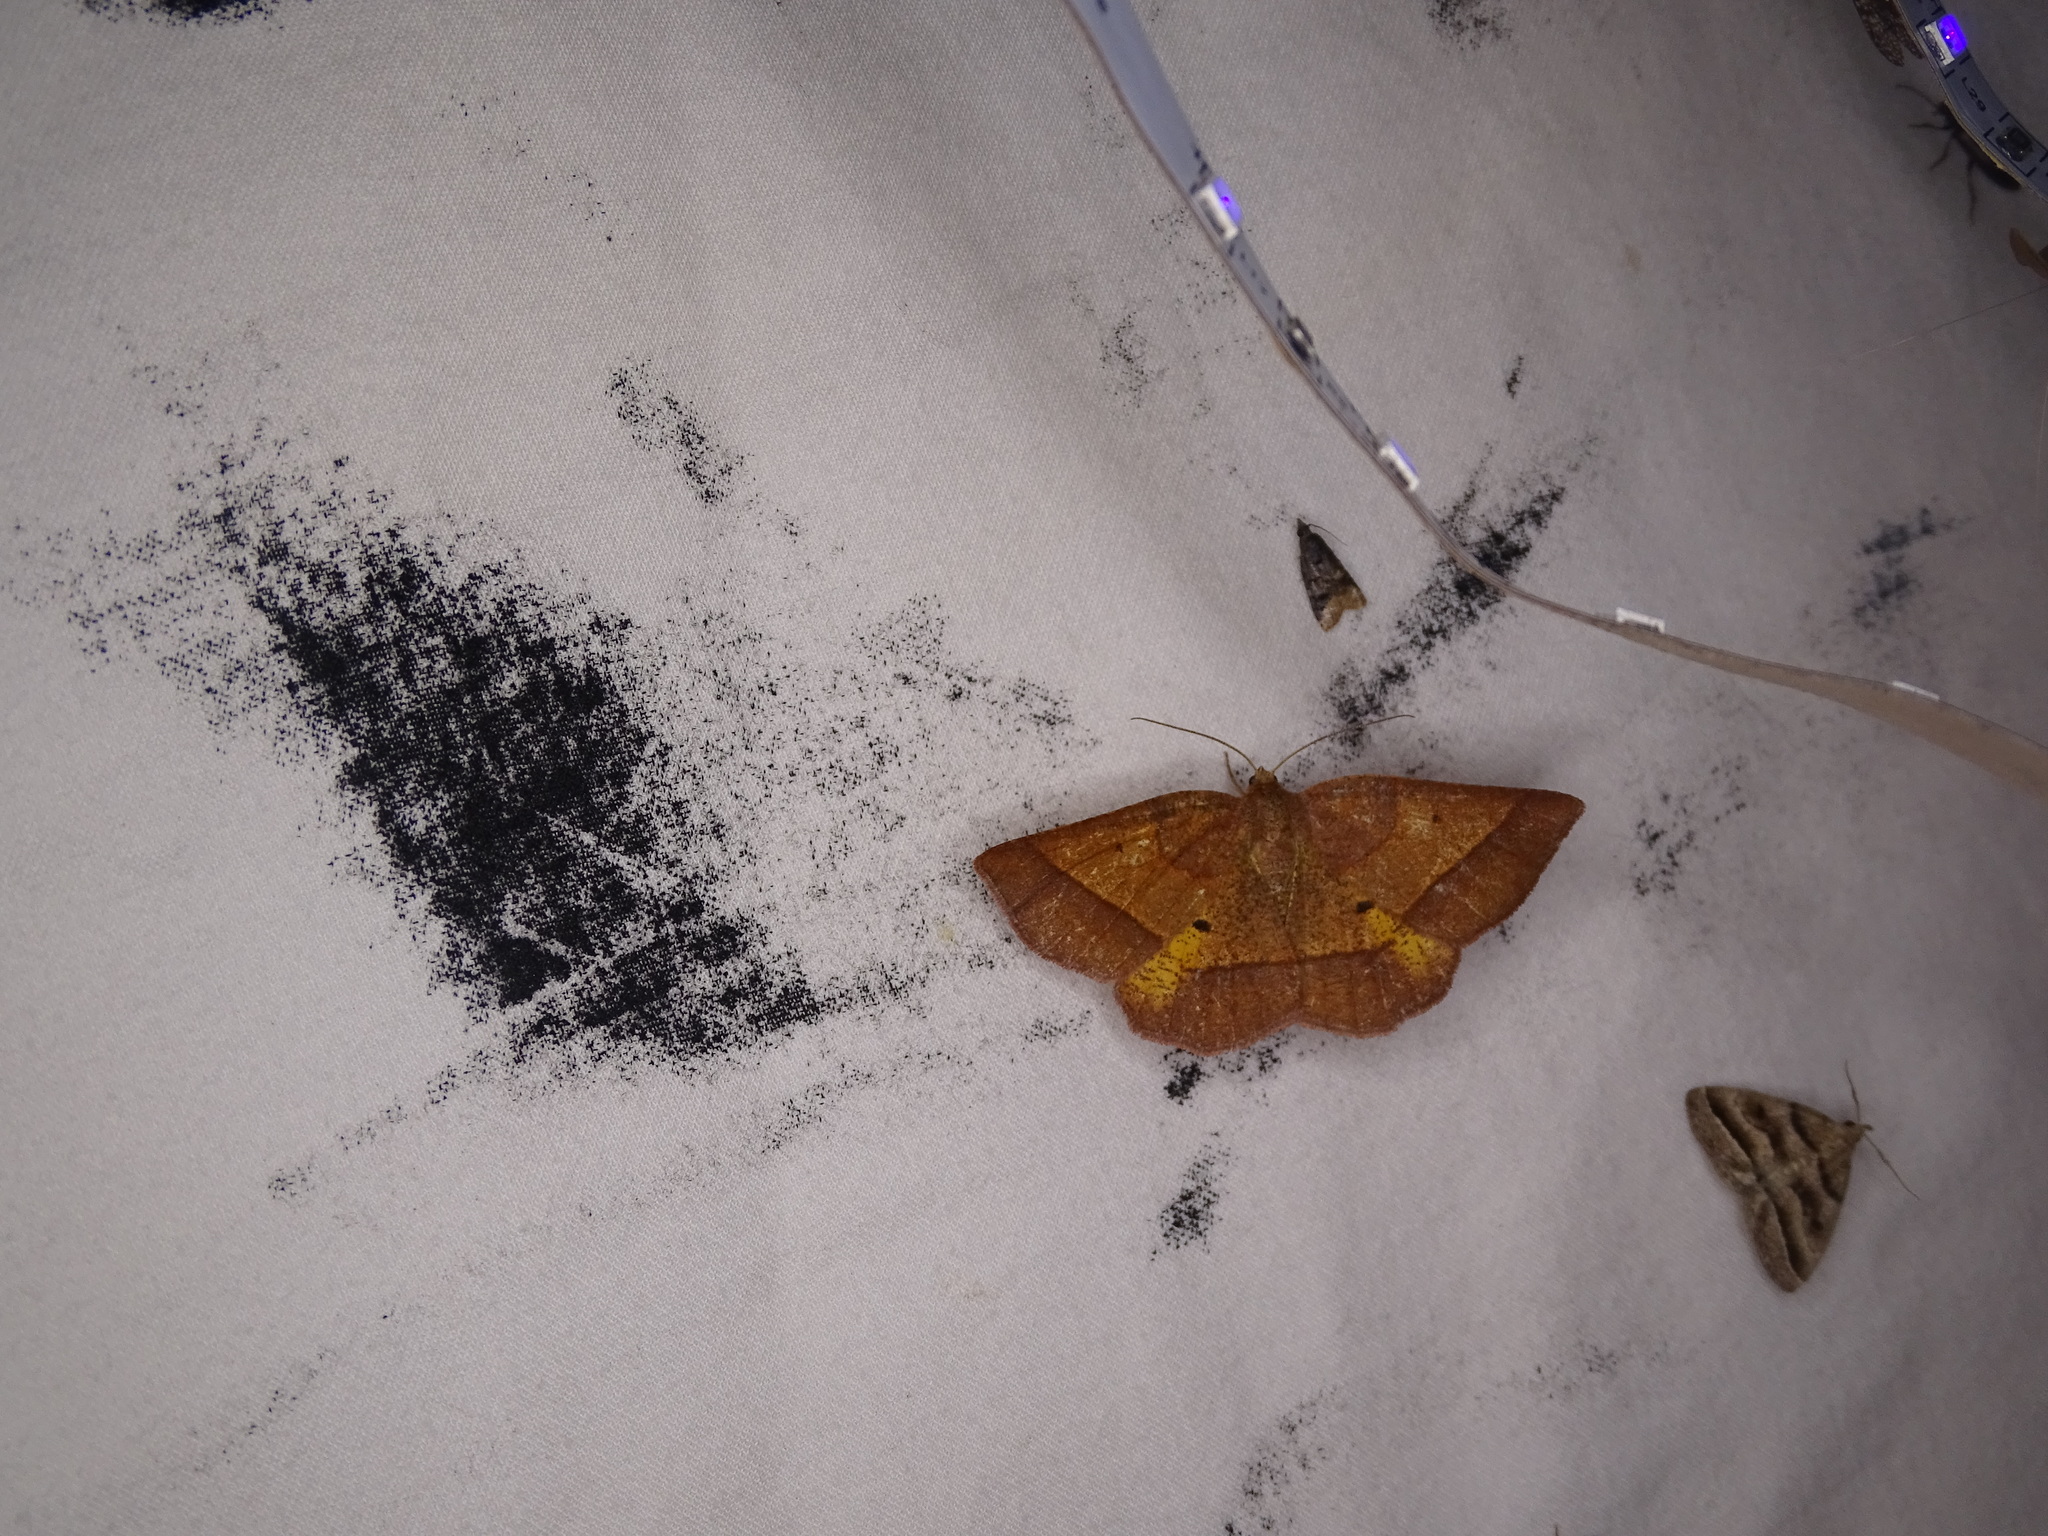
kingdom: Animalia
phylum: Arthropoda
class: Insecta
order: Lepidoptera
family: Geometridae
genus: Metarranthis
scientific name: Metarranthis obfirmaria
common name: Yellow-washed metarranthis
